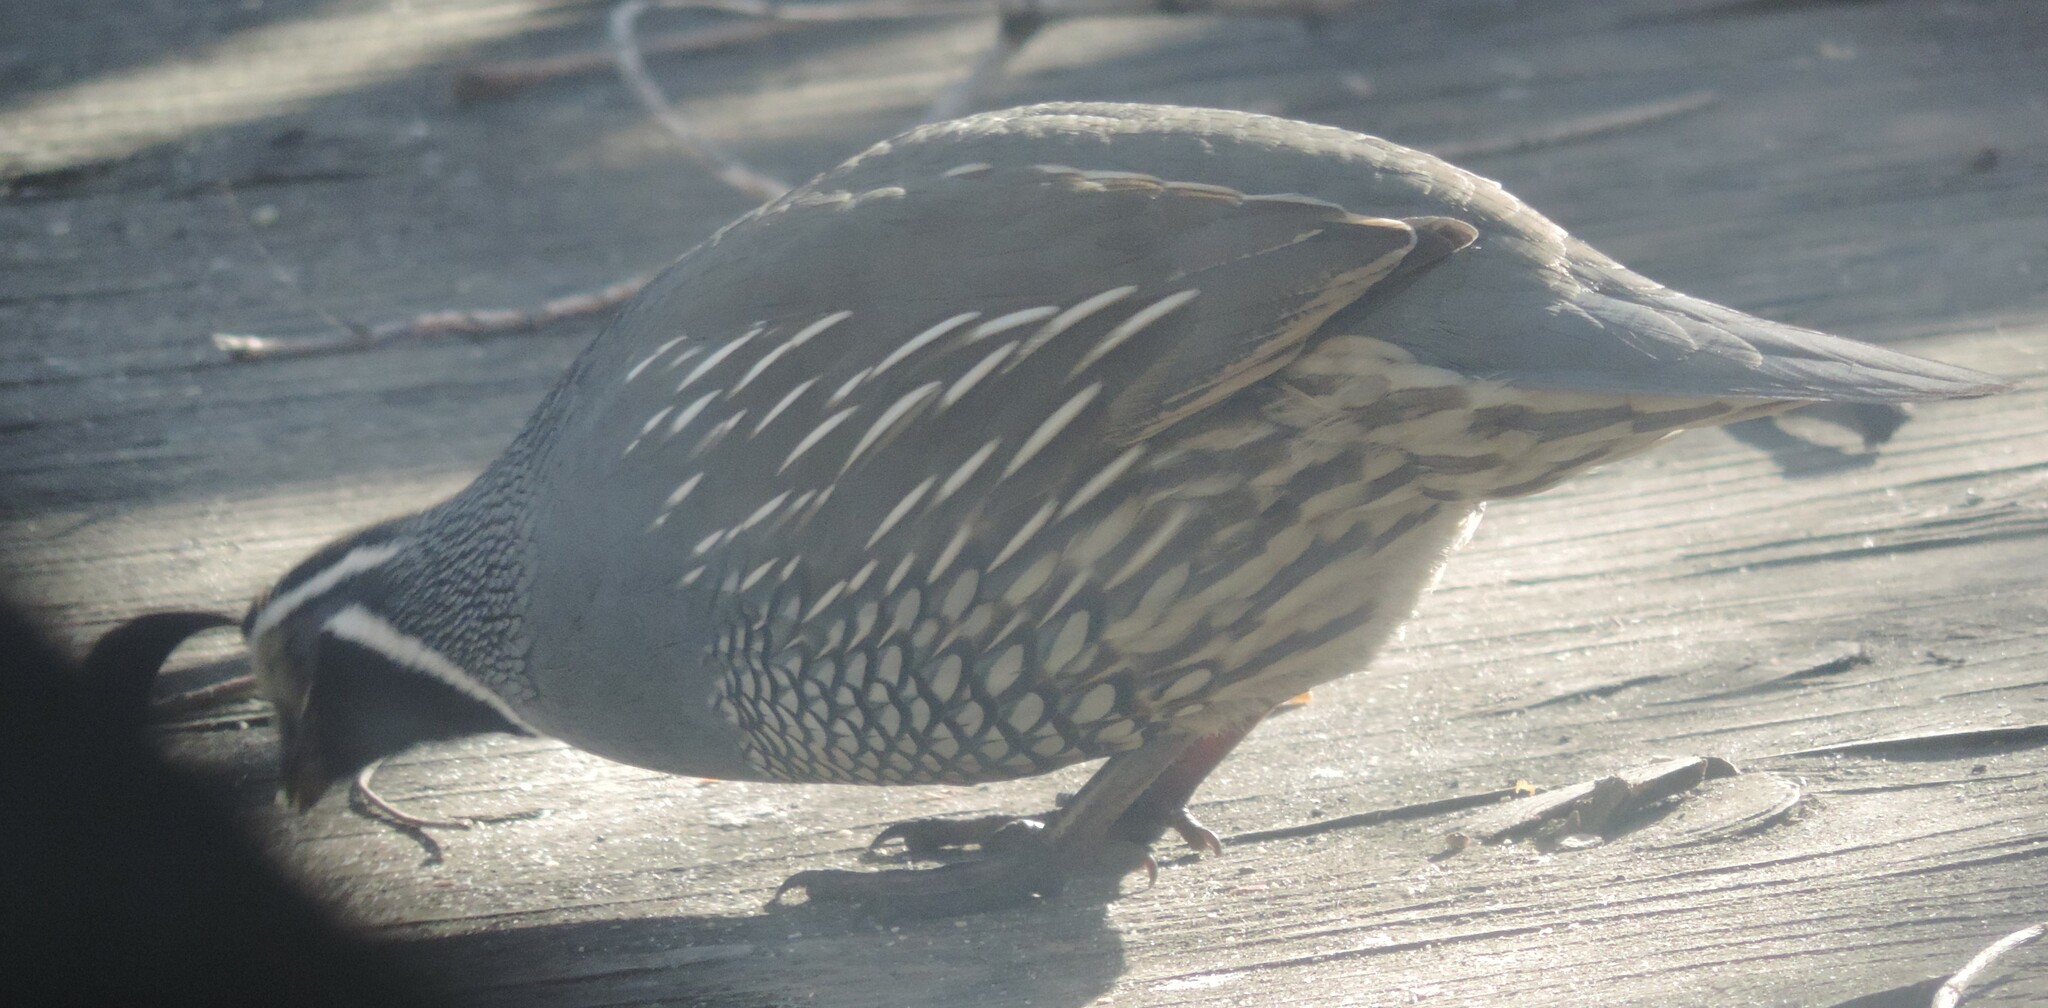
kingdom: Animalia
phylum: Chordata
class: Aves
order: Galliformes
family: Odontophoridae
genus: Callipepla
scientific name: Callipepla californica
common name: California quail
